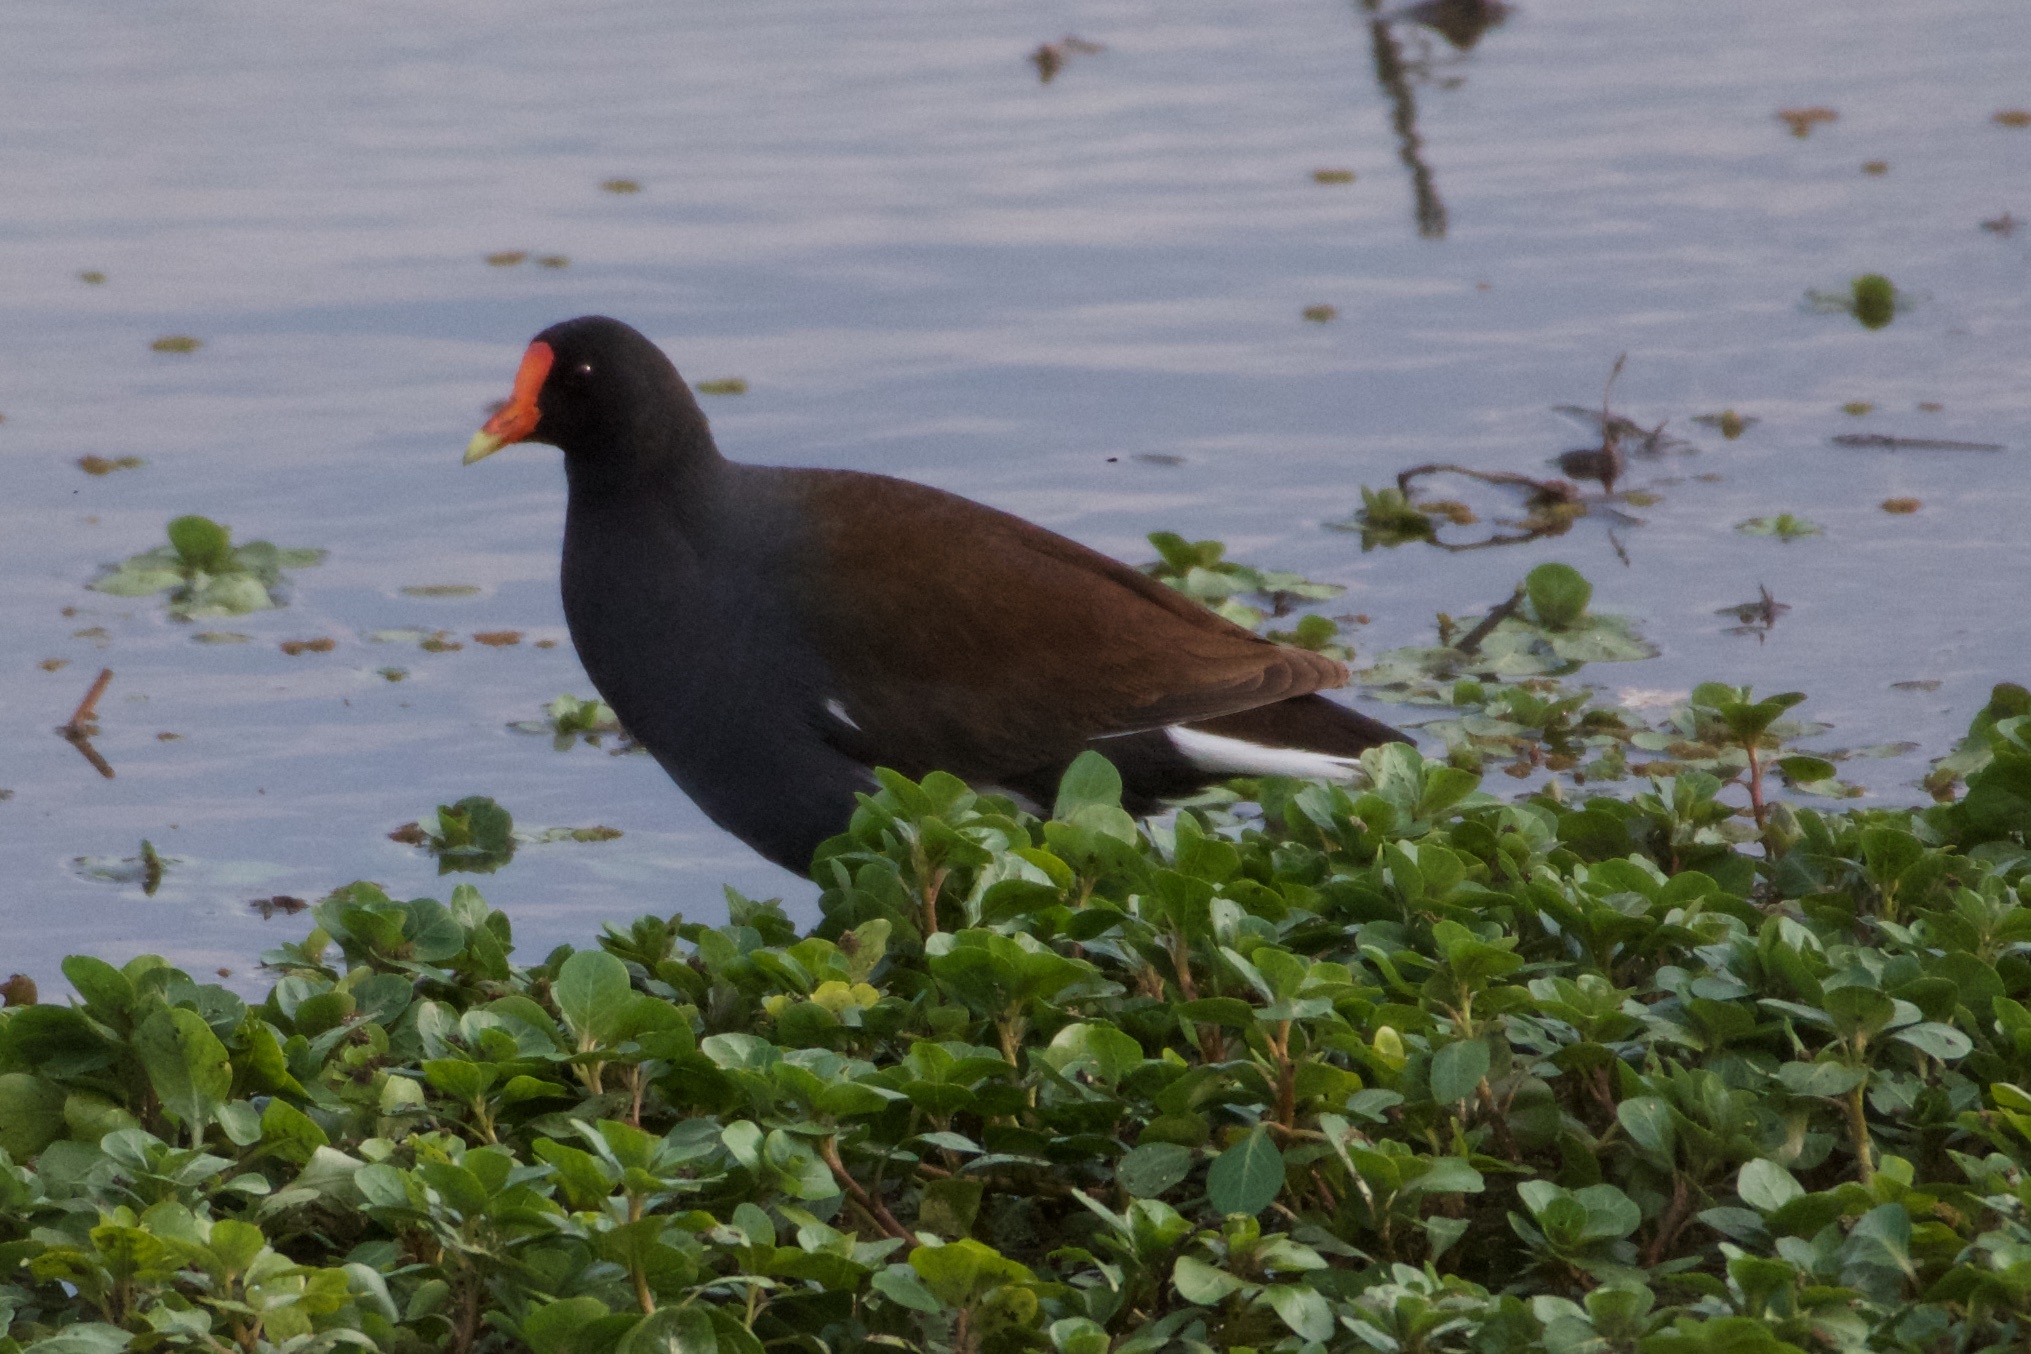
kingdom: Animalia
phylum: Chordata
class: Aves
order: Gruiformes
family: Rallidae
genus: Gallinula
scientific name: Gallinula chloropus
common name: Common moorhen
